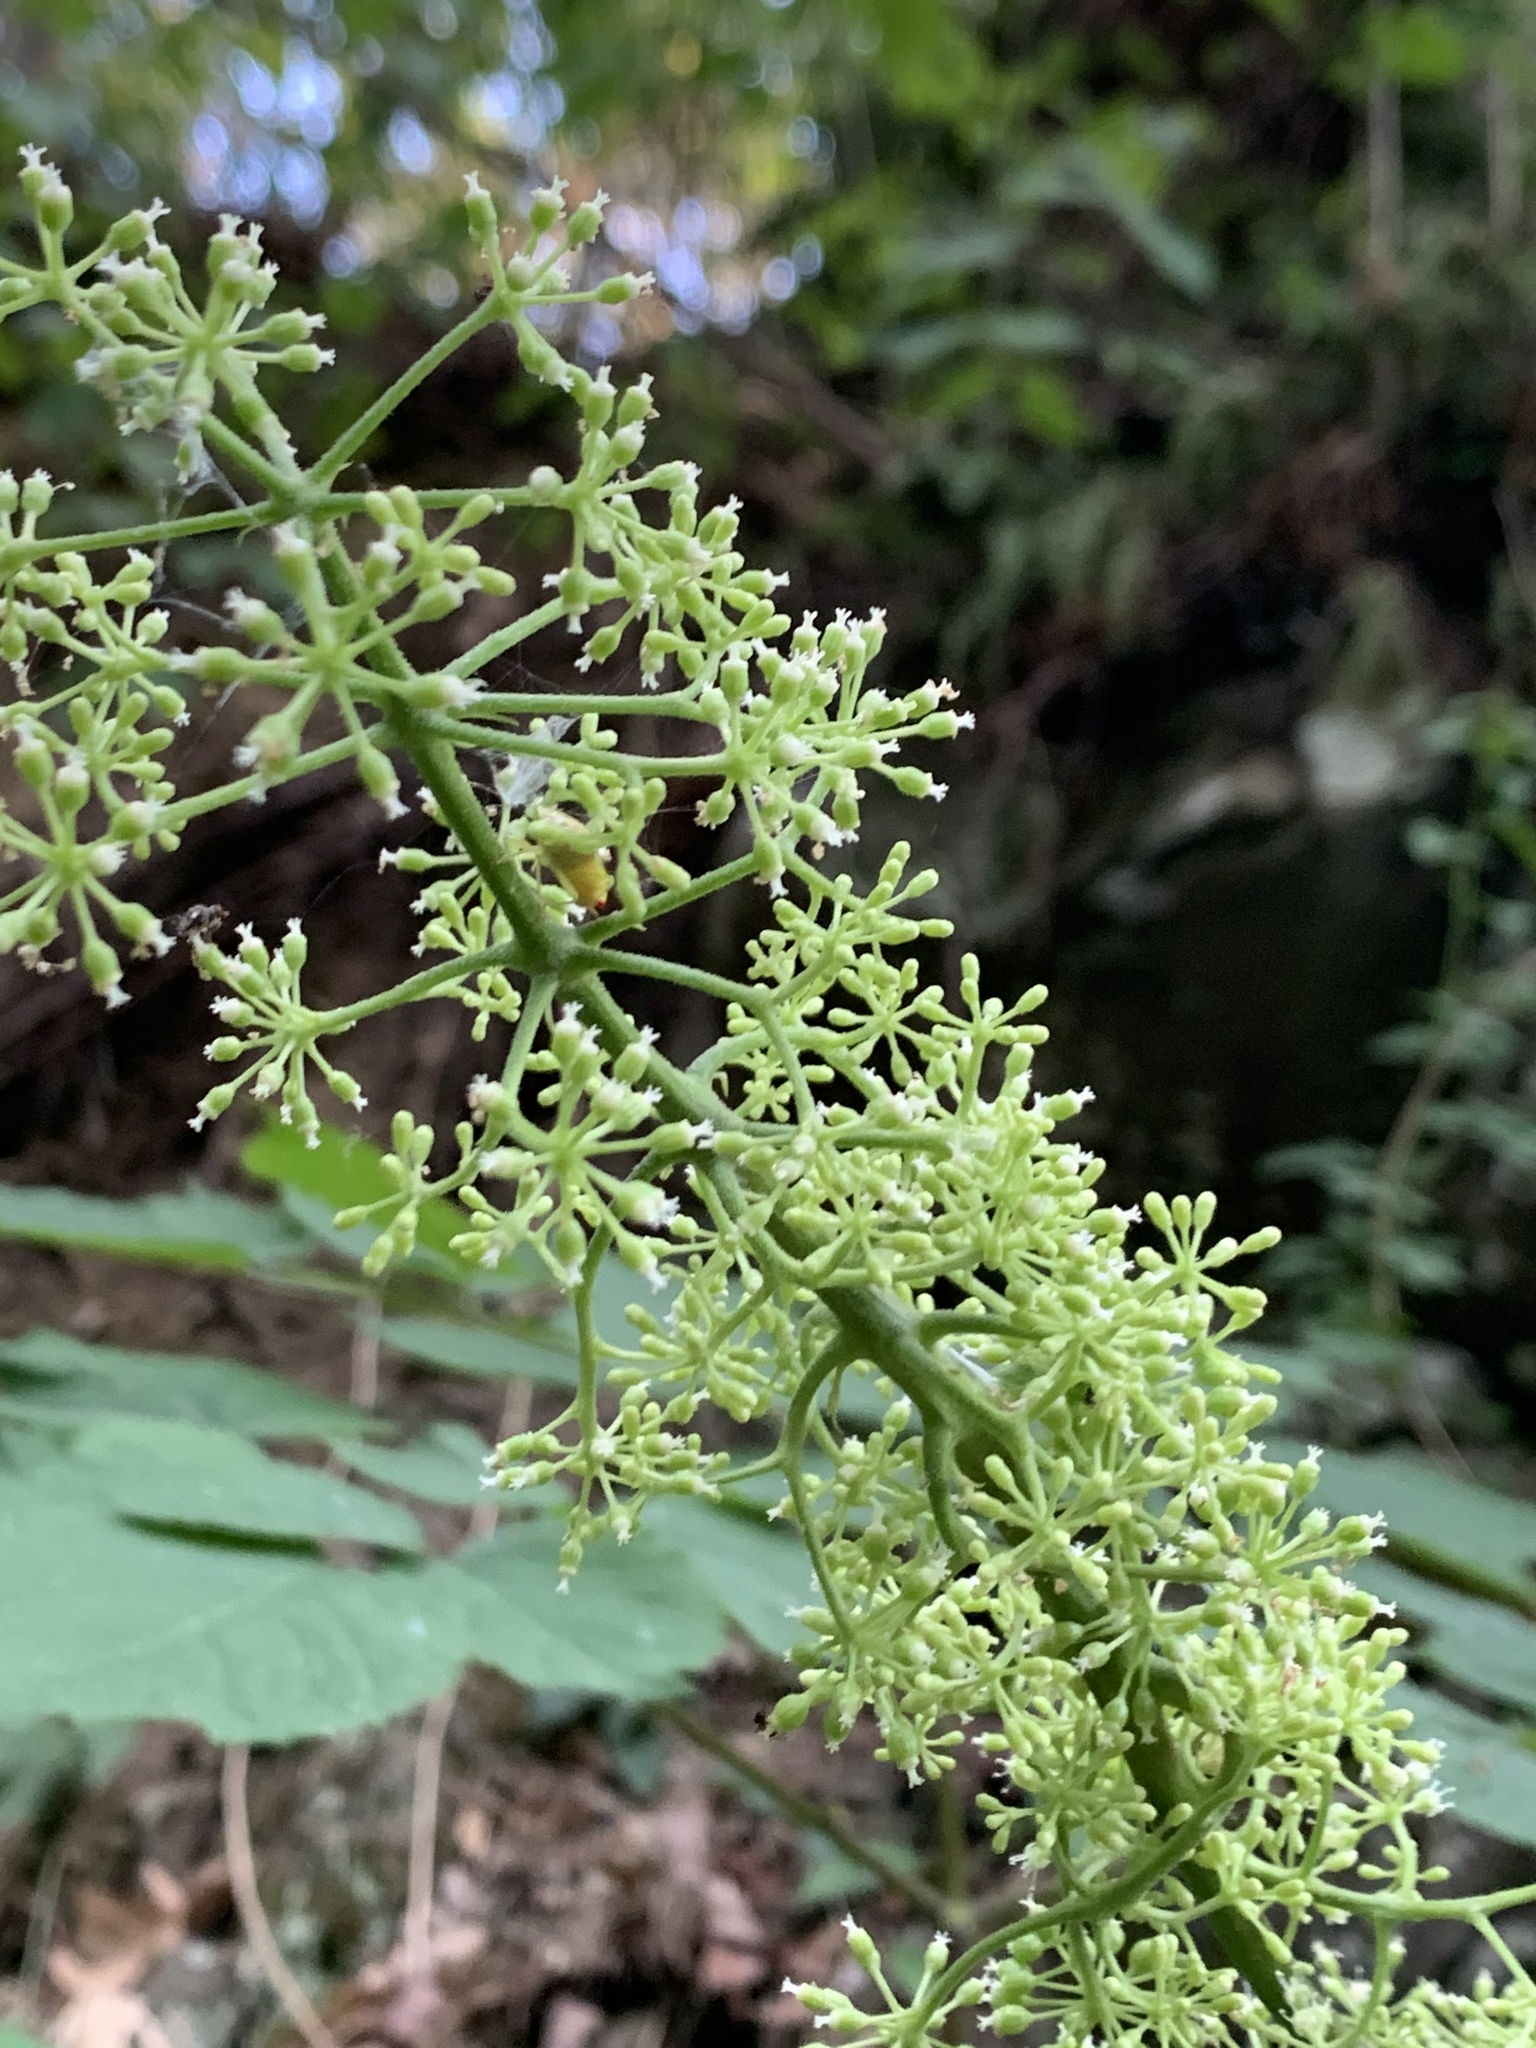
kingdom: Plantae
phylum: Tracheophyta
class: Magnoliopsida
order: Apiales
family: Araliaceae
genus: Aralia
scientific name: Aralia racemosa
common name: American-spikenard
